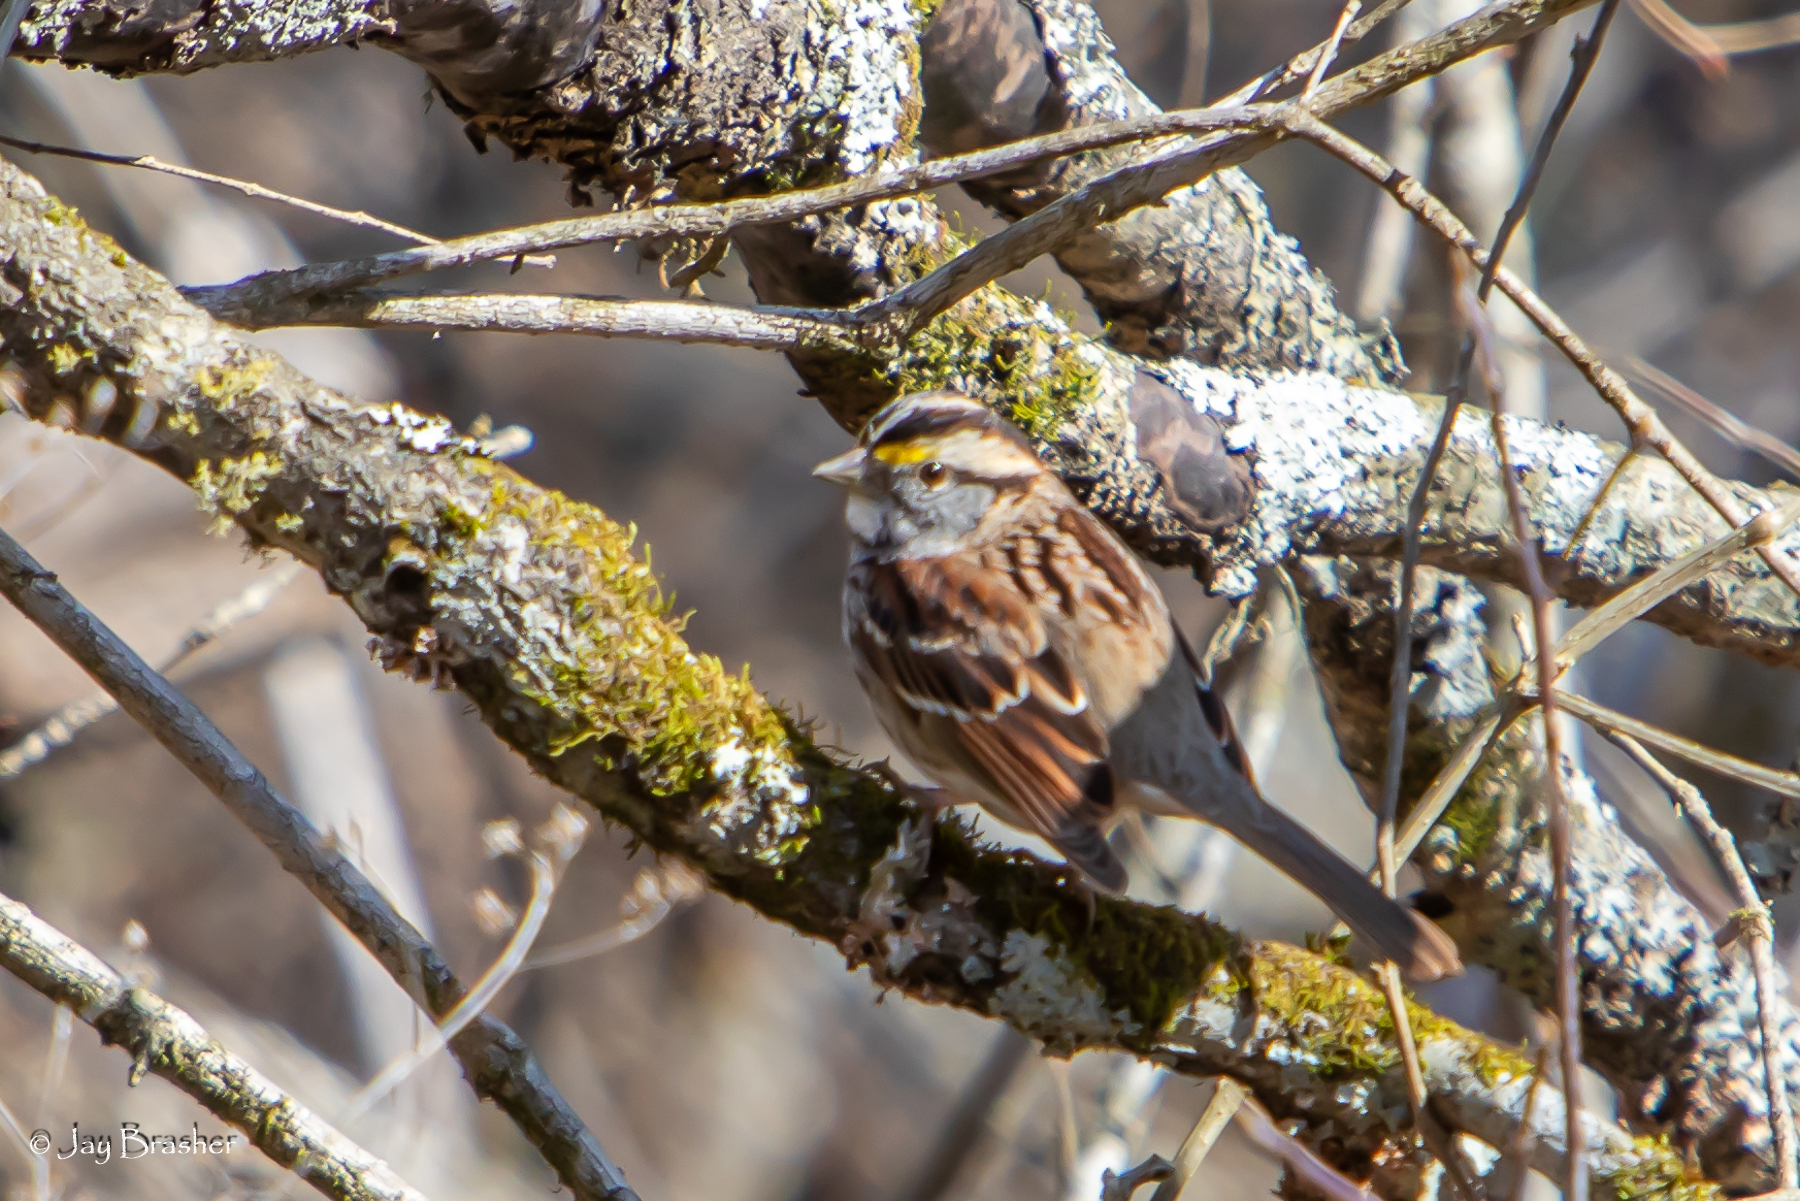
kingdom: Animalia
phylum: Chordata
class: Aves
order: Passeriformes
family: Passerellidae
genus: Zonotrichia
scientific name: Zonotrichia albicollis
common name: White-throated sparrow
